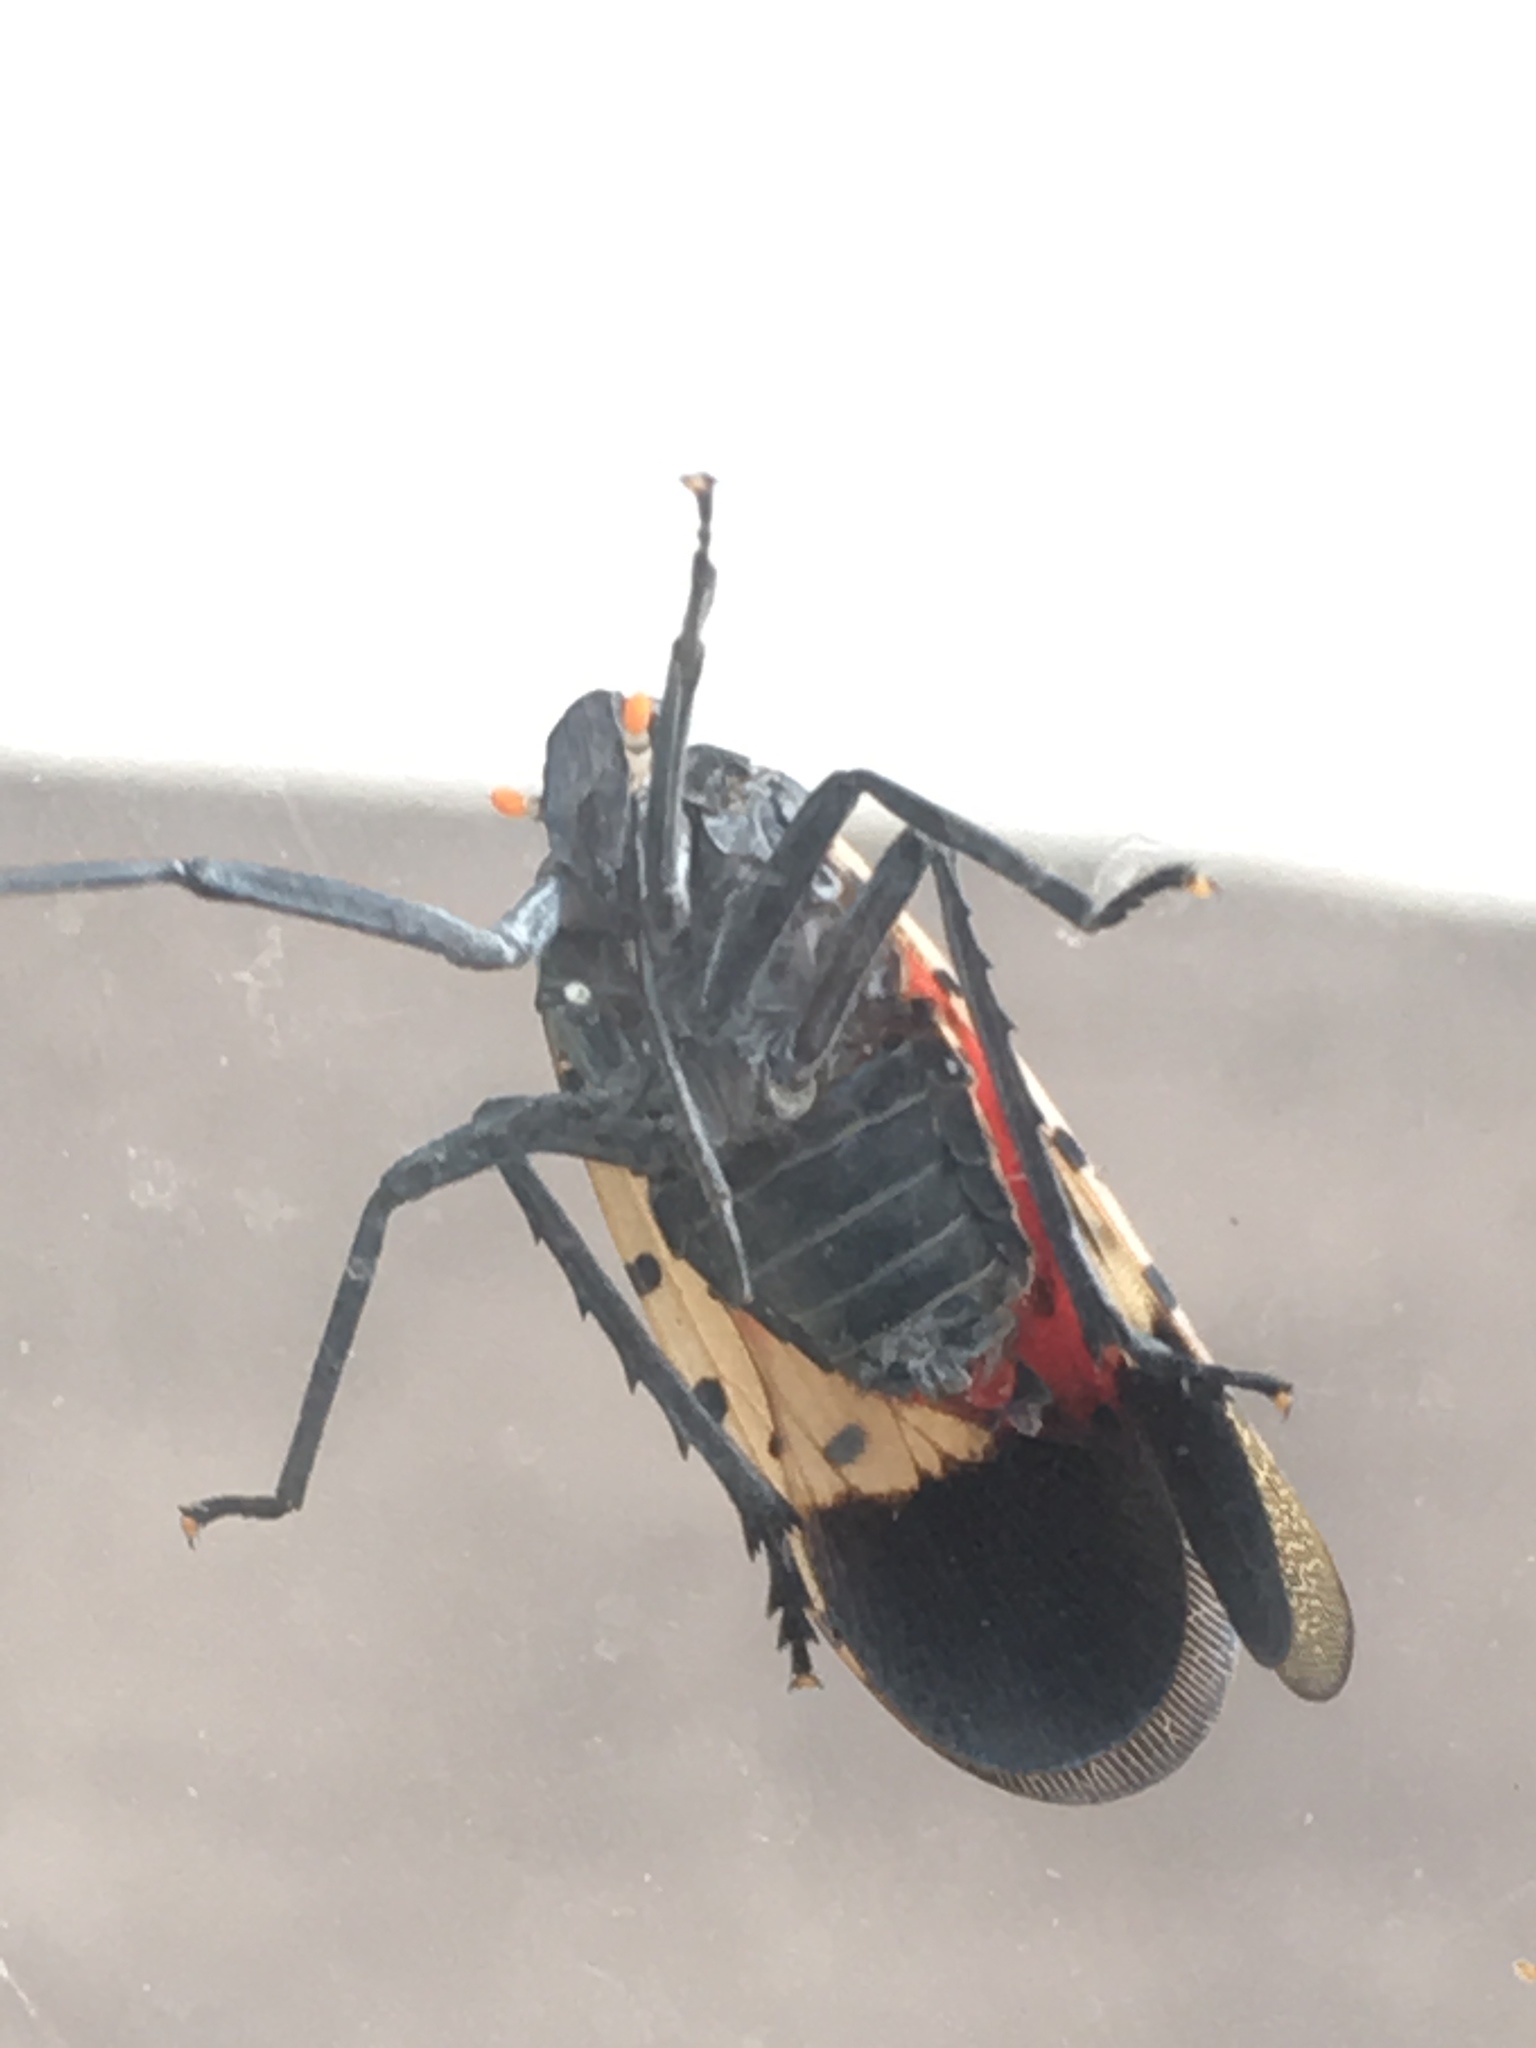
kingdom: Animalia
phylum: Arthropoda
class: Insecta
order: Hemiptera
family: Fulgoridae
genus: Lycorma
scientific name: Lycorma delicatula
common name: Spotted lanternfly
